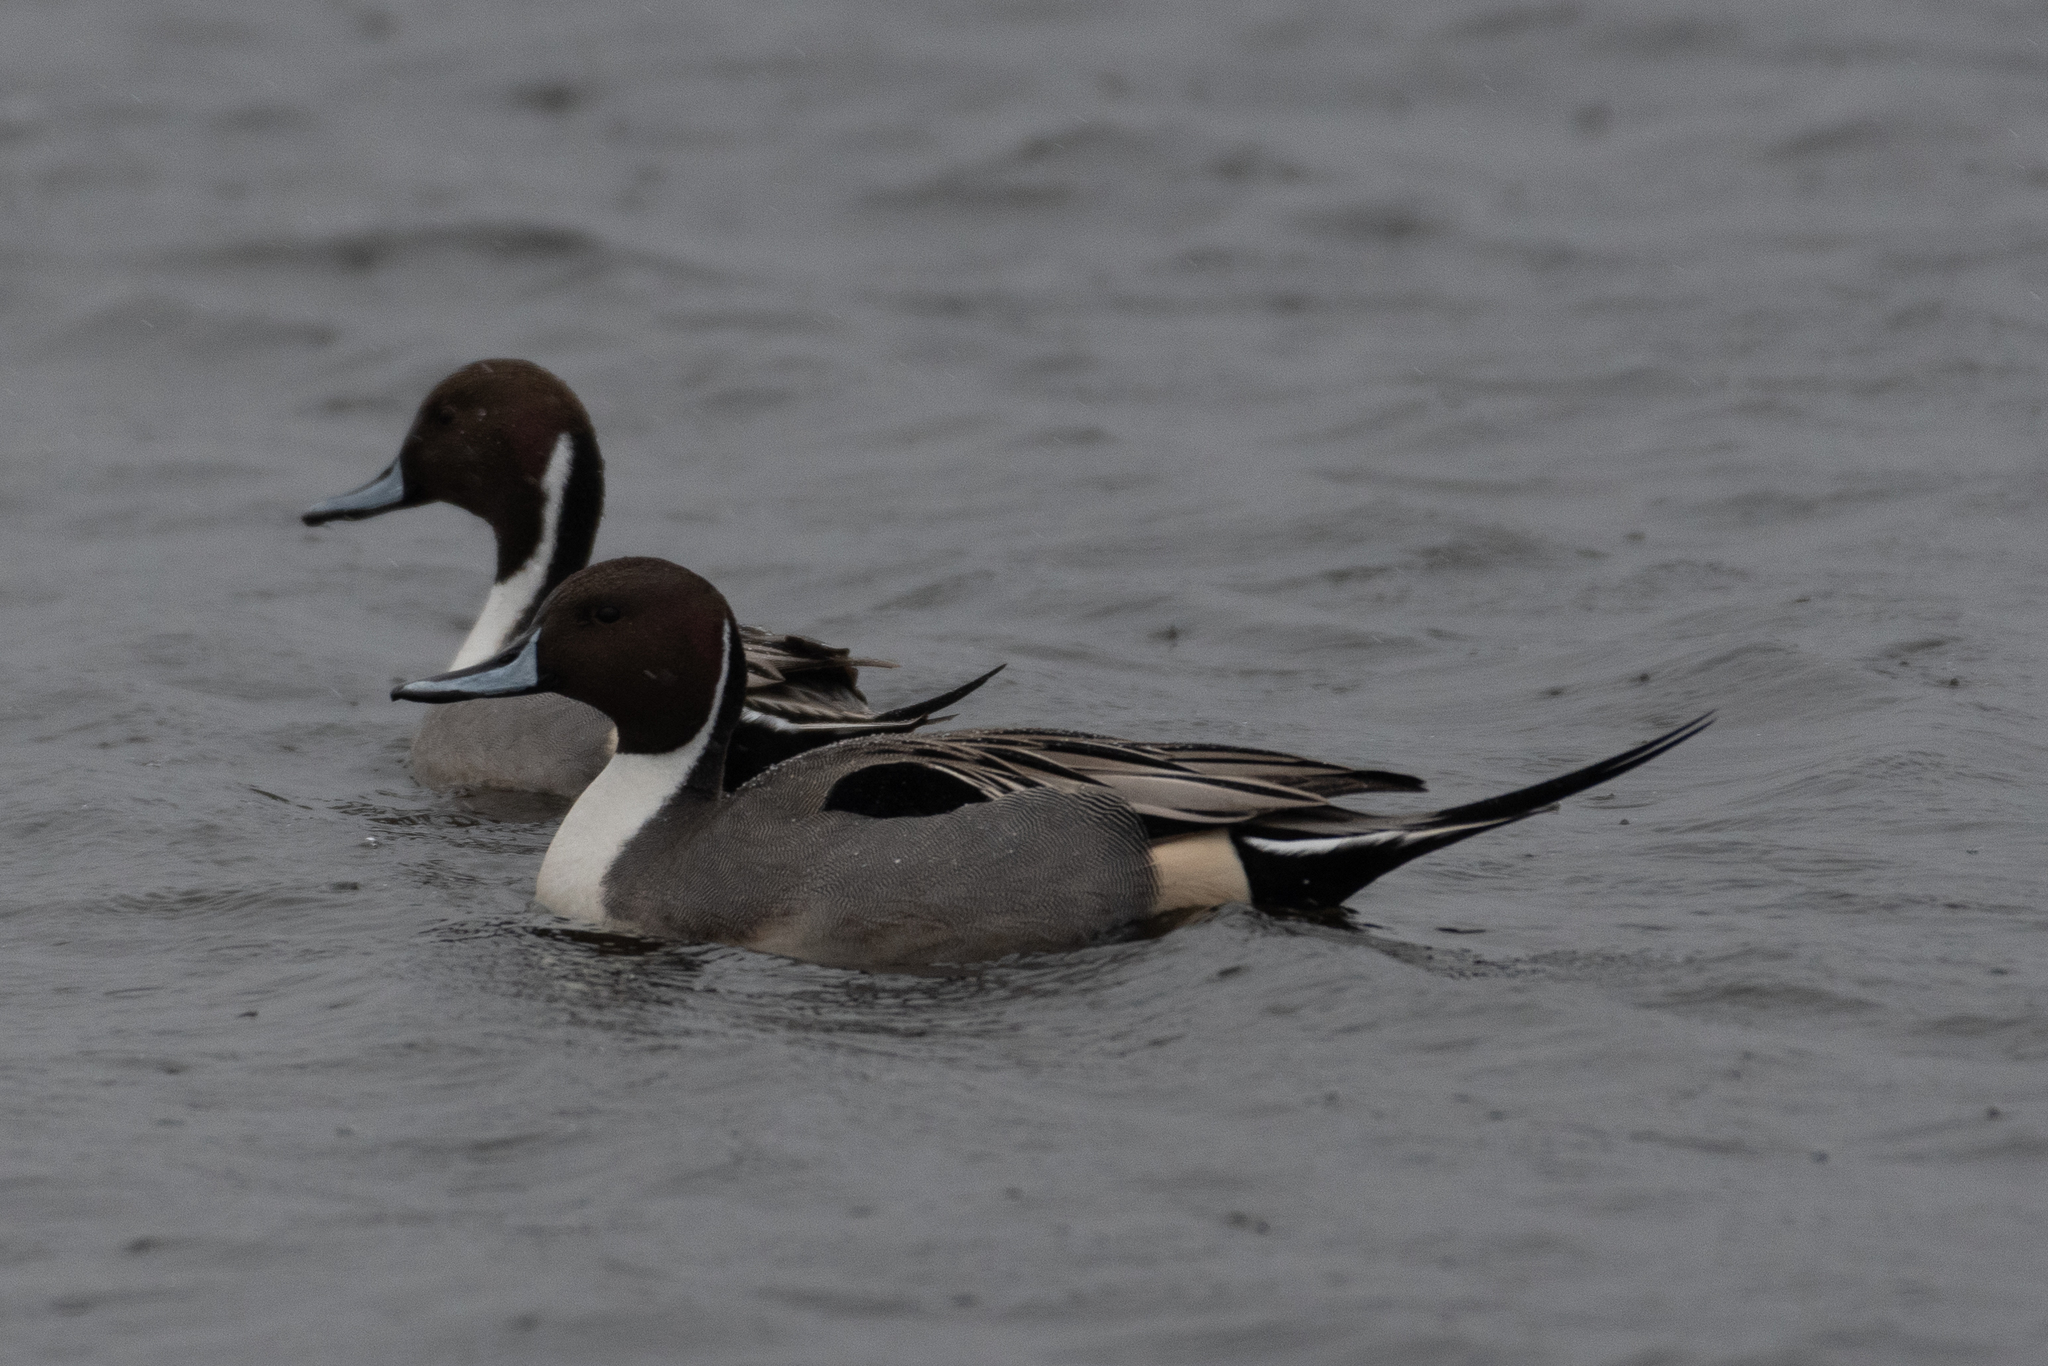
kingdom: Animalia
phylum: Chordata
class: Aves
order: Anseriformes
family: Anatidae
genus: Anas
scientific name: Anas acuta
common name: Northern pintail
